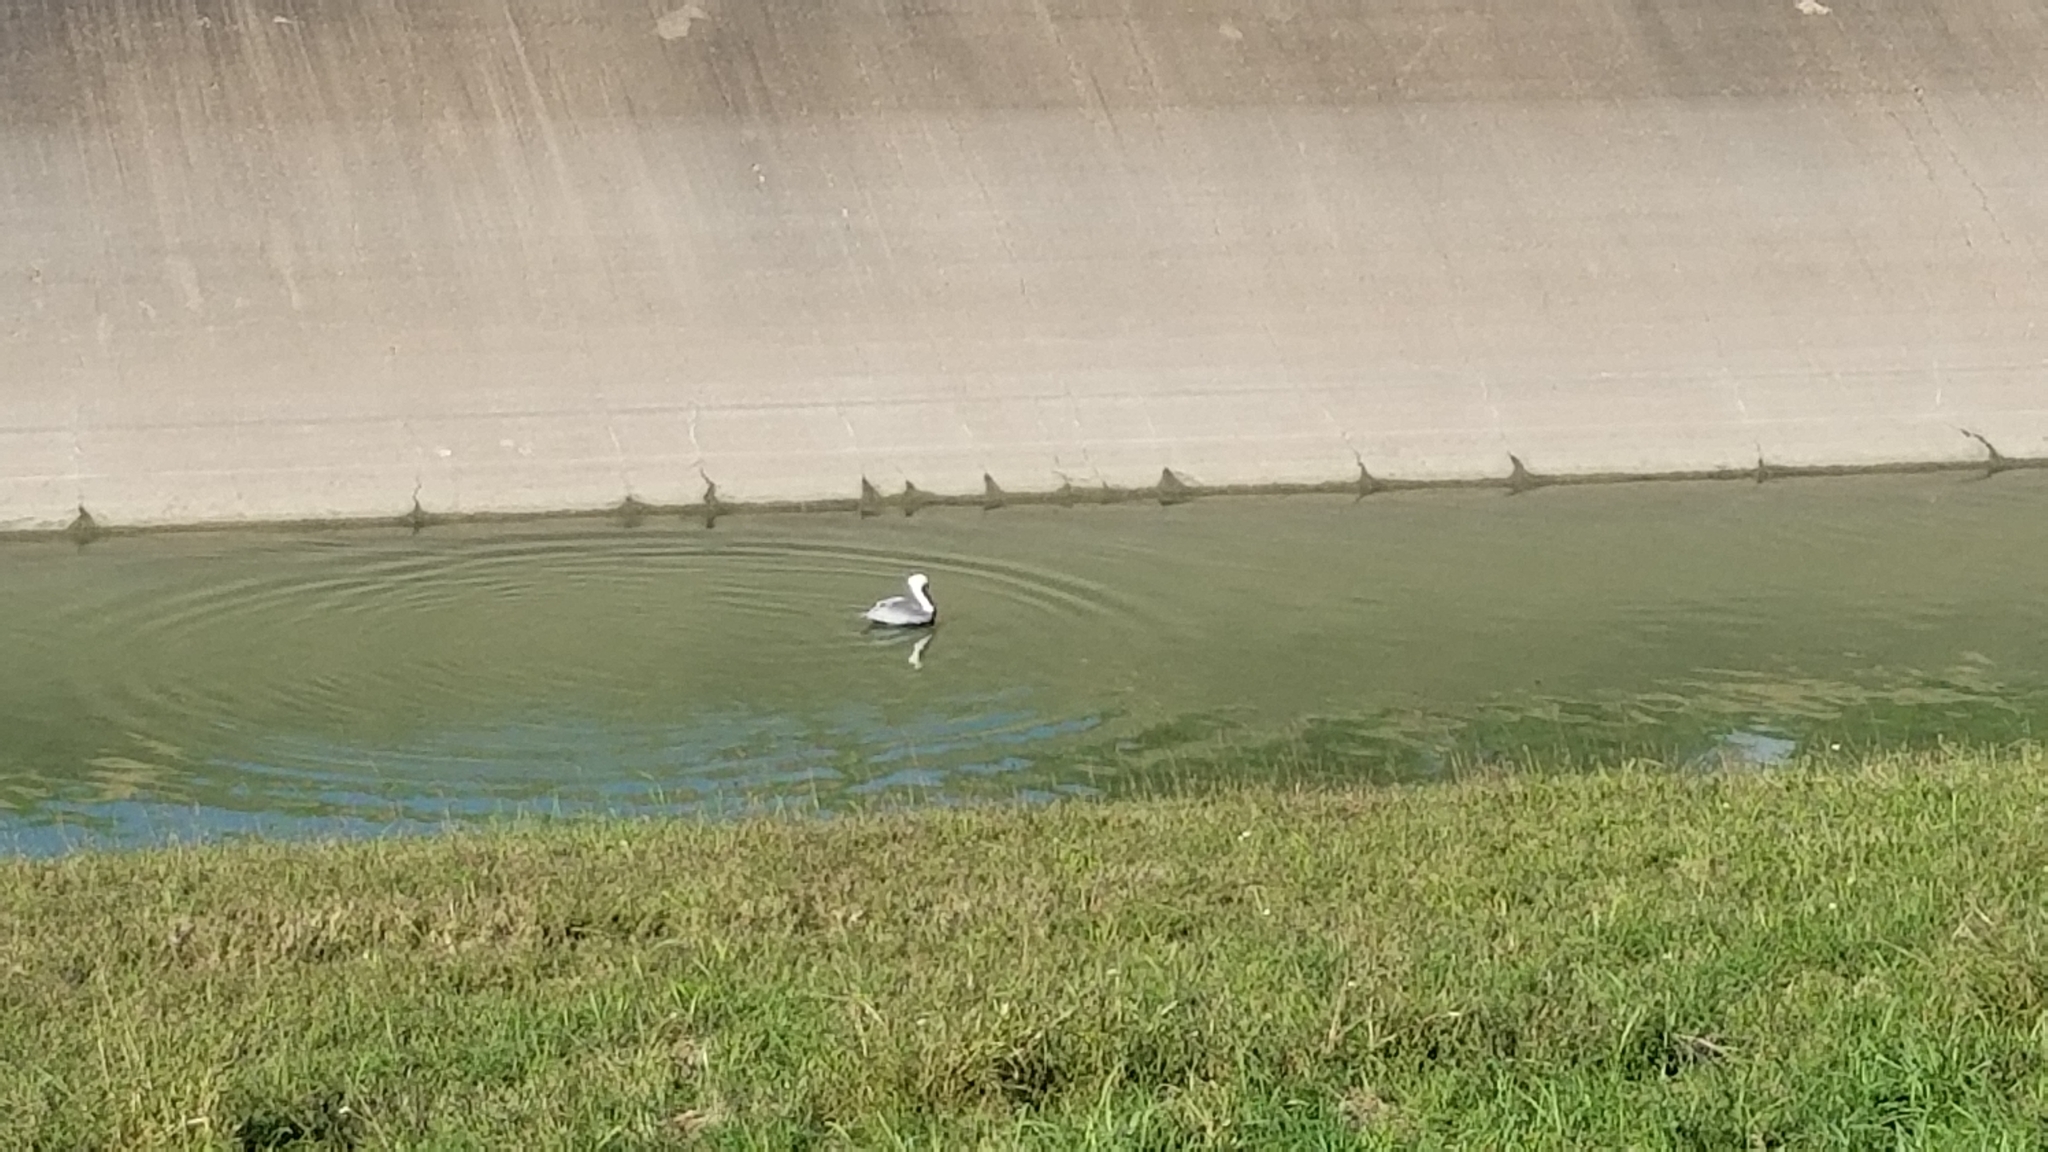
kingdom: Animalia
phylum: Chordata
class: Aves
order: Pelecaniformes
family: Pelecanidae
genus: Pelecanus
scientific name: Pelecanus occidentalis
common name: Brown pelican
